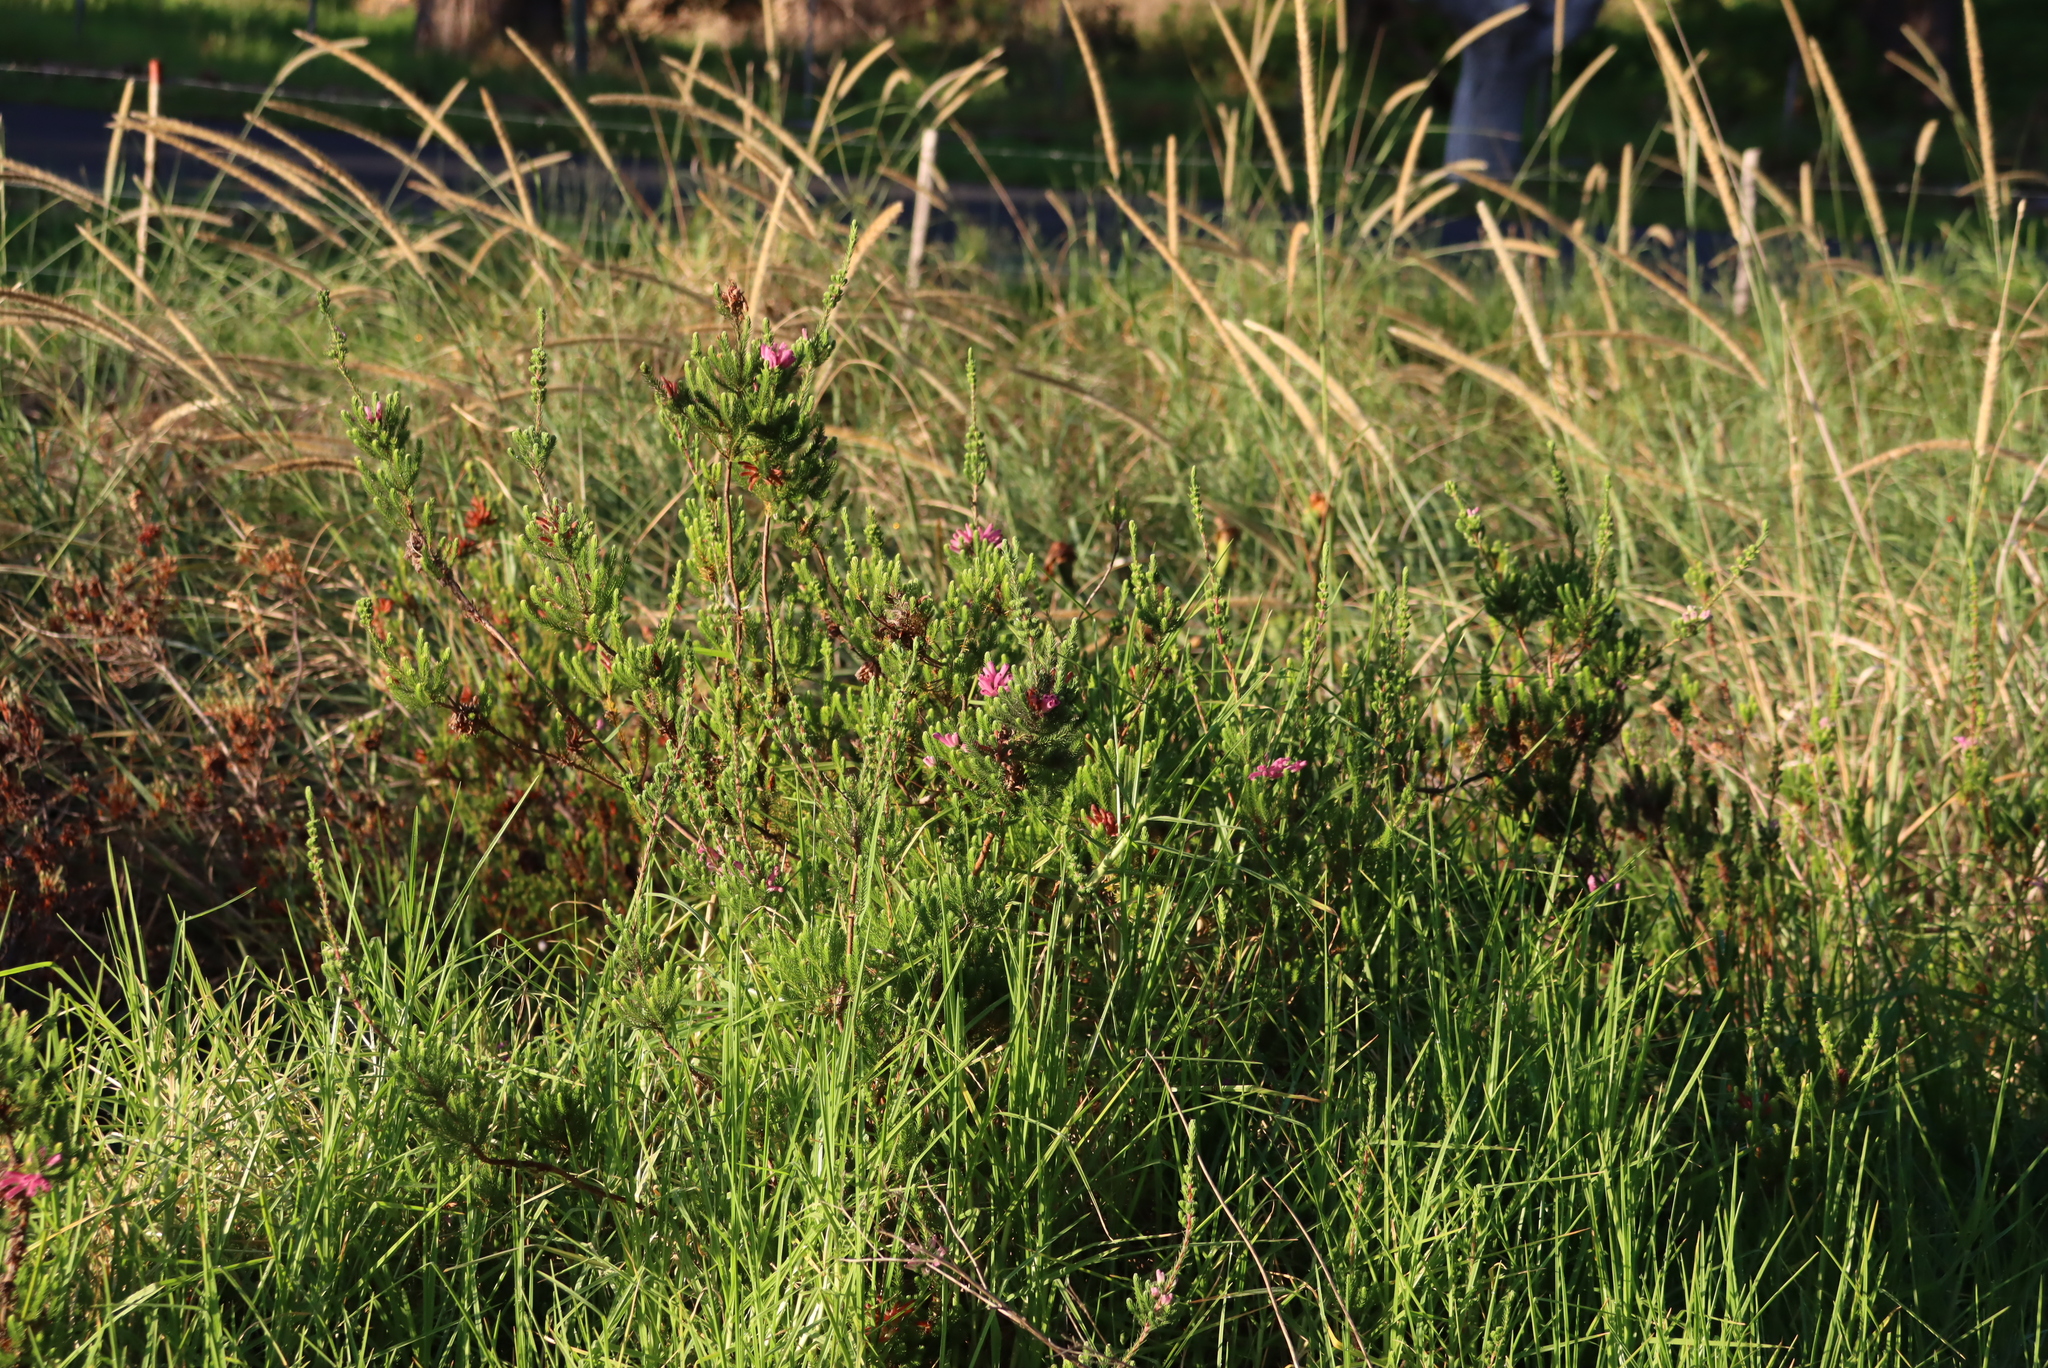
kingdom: Plantae
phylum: Tracheophyta
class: Magnoliopsida
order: Ericales
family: Ericaceae
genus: Erica
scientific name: Erica verticillata
